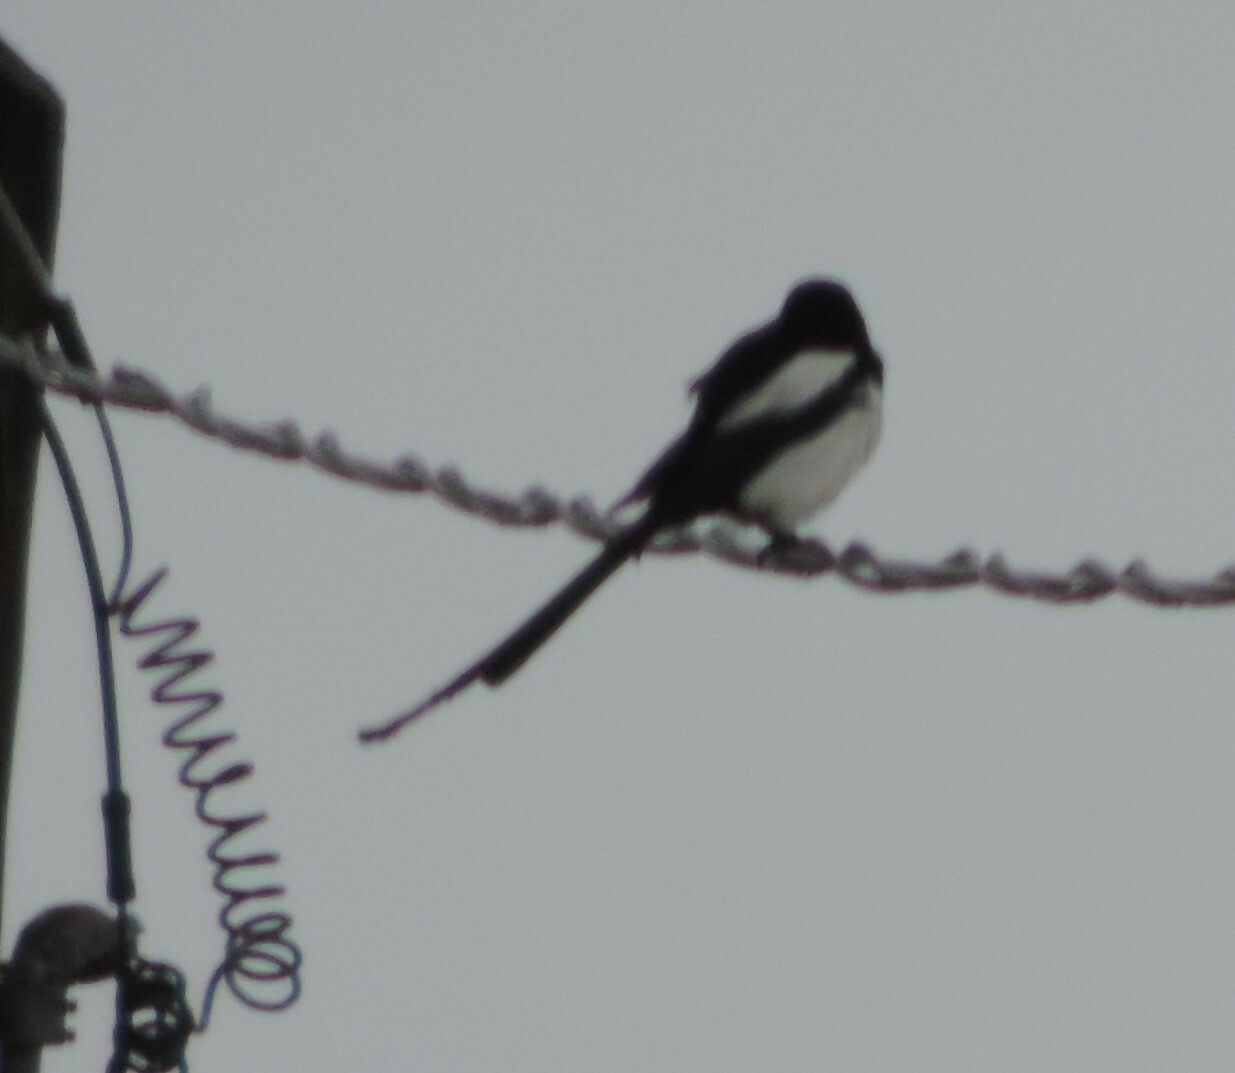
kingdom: Animalia
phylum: Chordata
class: Aves
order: Passeriformes
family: Corvidae
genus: Pica
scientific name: Pica hudsonia
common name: Black-billed magpie
